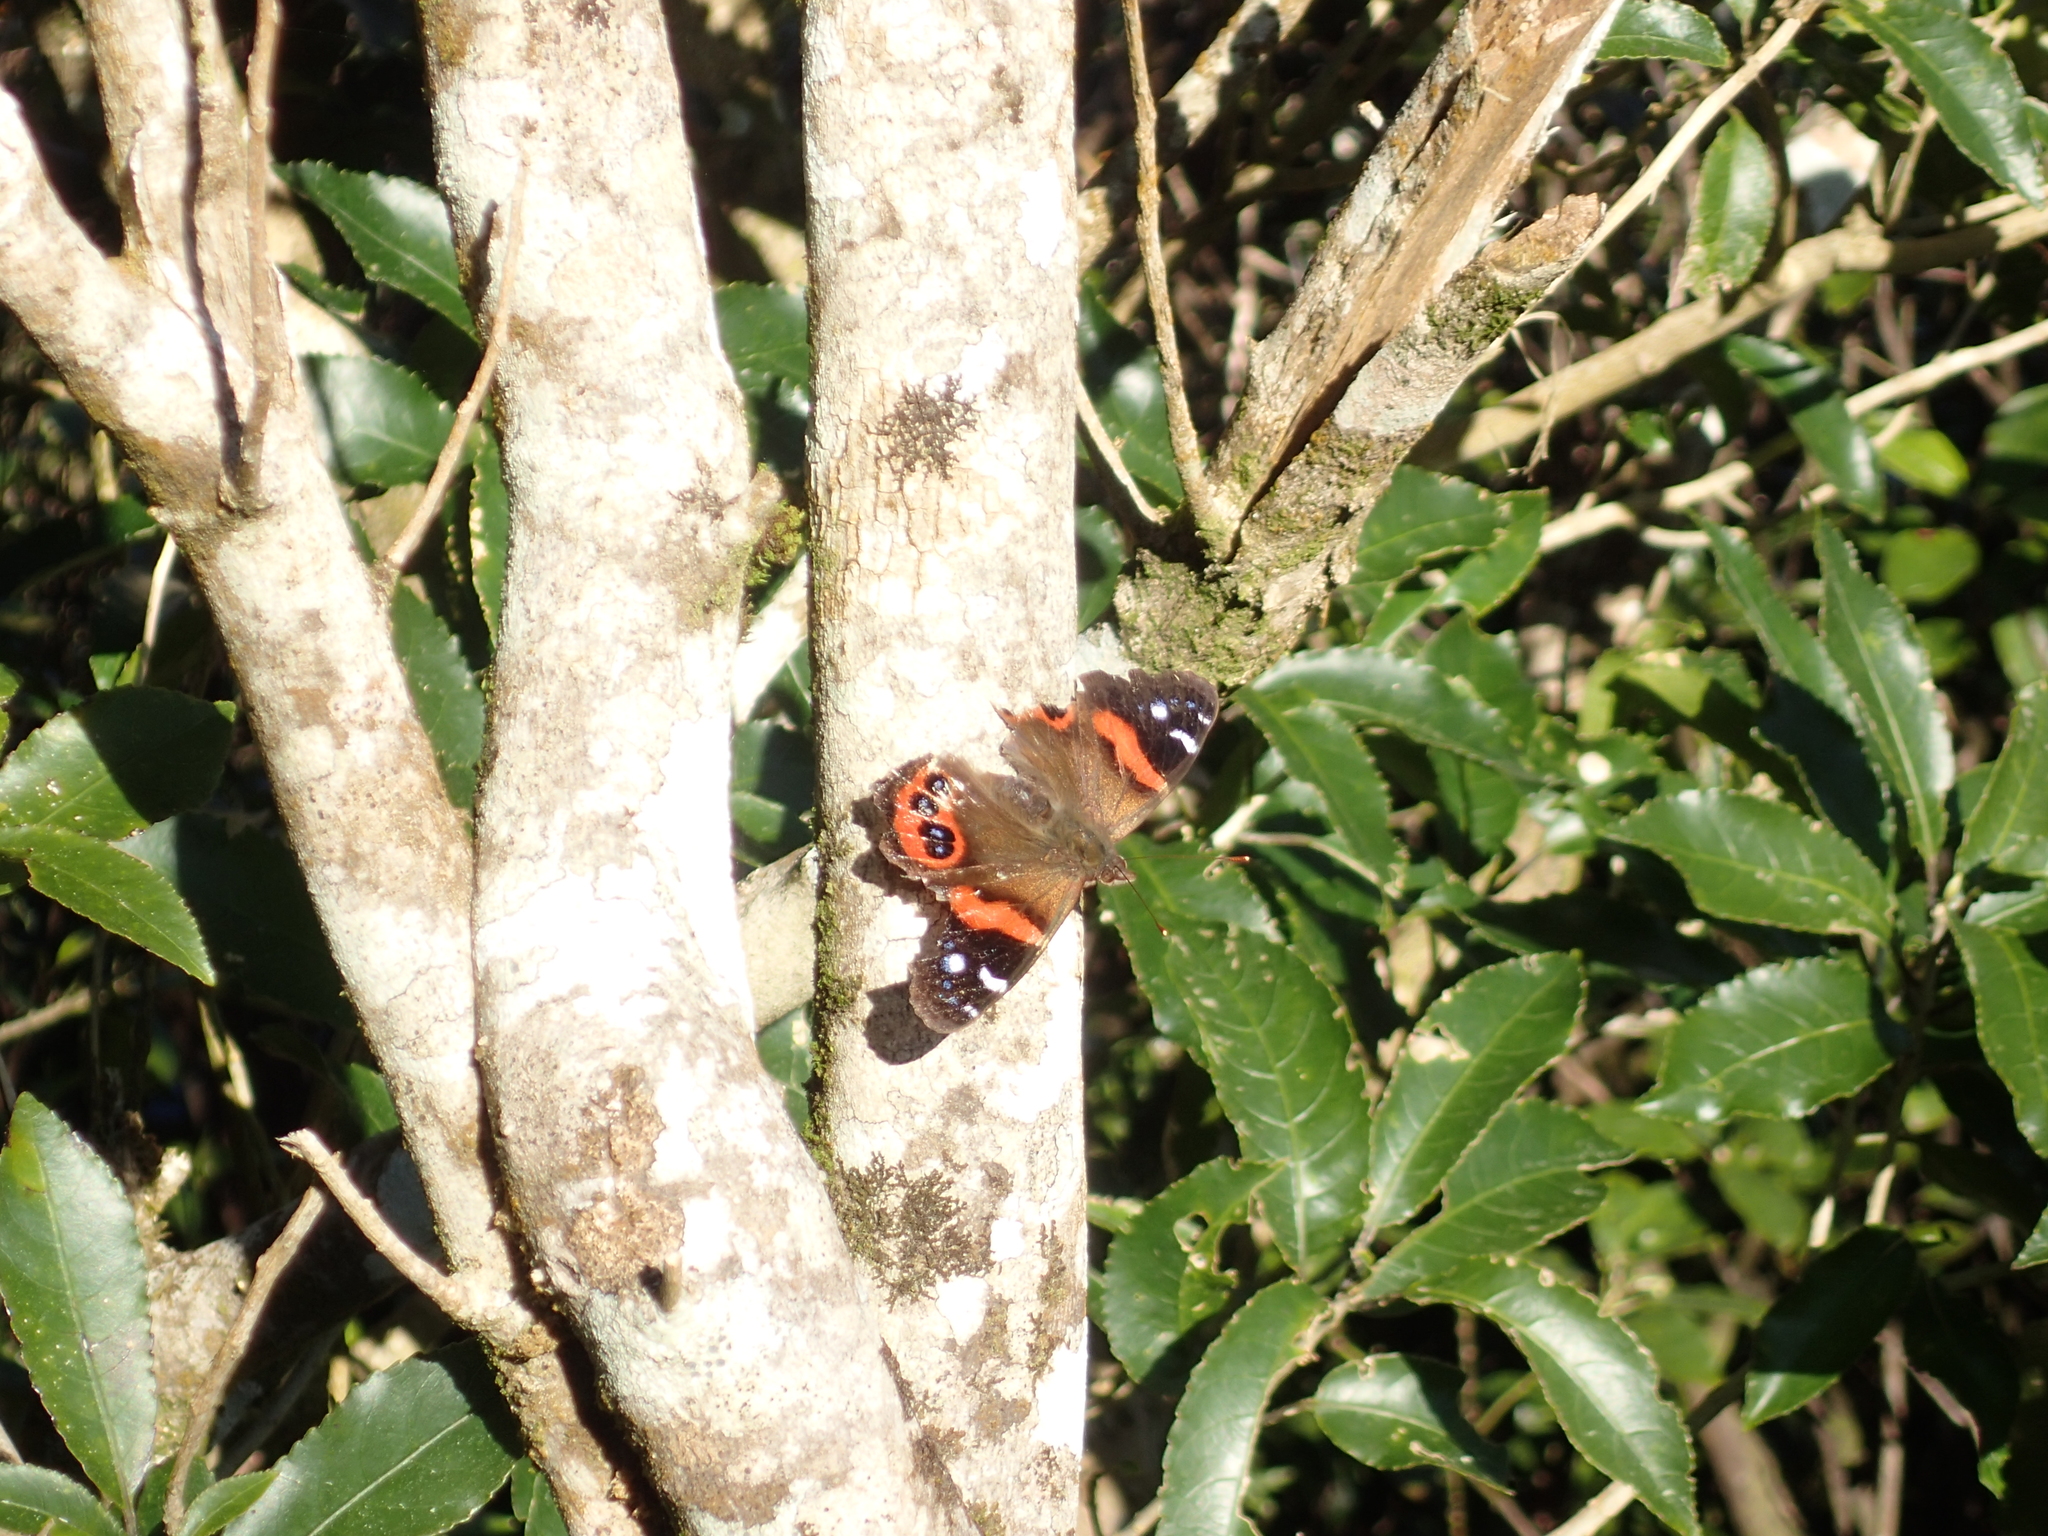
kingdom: Animalia
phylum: Arthropoda
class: Insecta
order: Lepidoptera
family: Nymphalidae
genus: Vanessa
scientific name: Vanessa gonerilla
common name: New zealand red admiral
